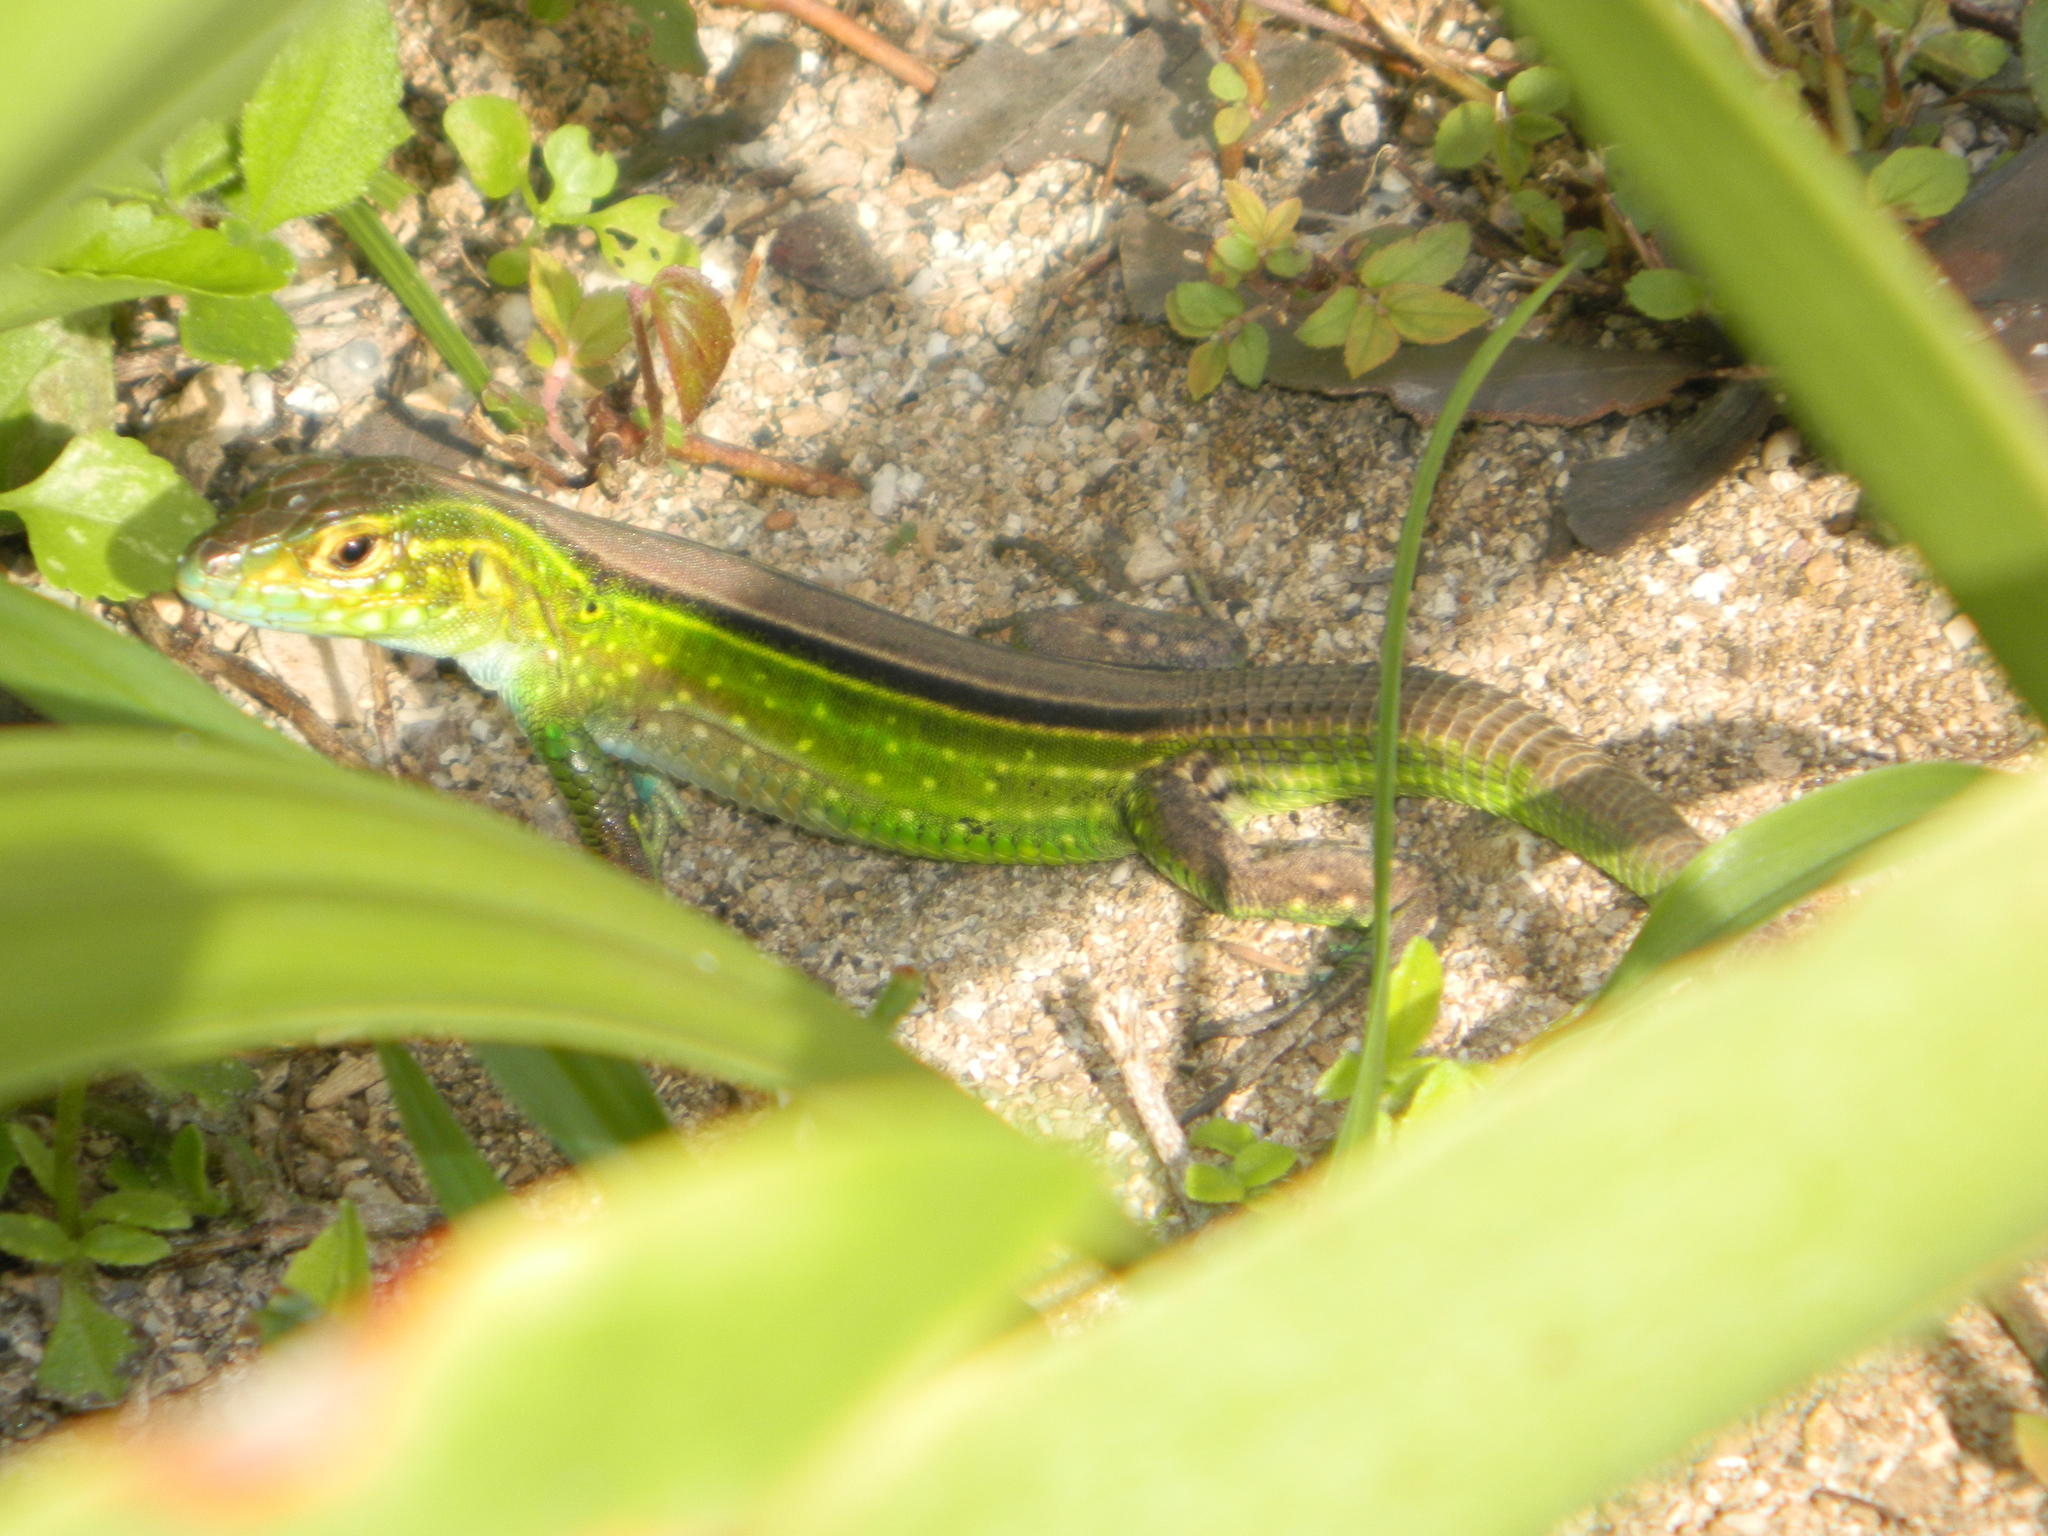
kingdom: Animalia
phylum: Chordata
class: Squamata
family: Teiidae
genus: Cnemidophorus
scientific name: Cnemidophorus ruatanus
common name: Central american whiptail
